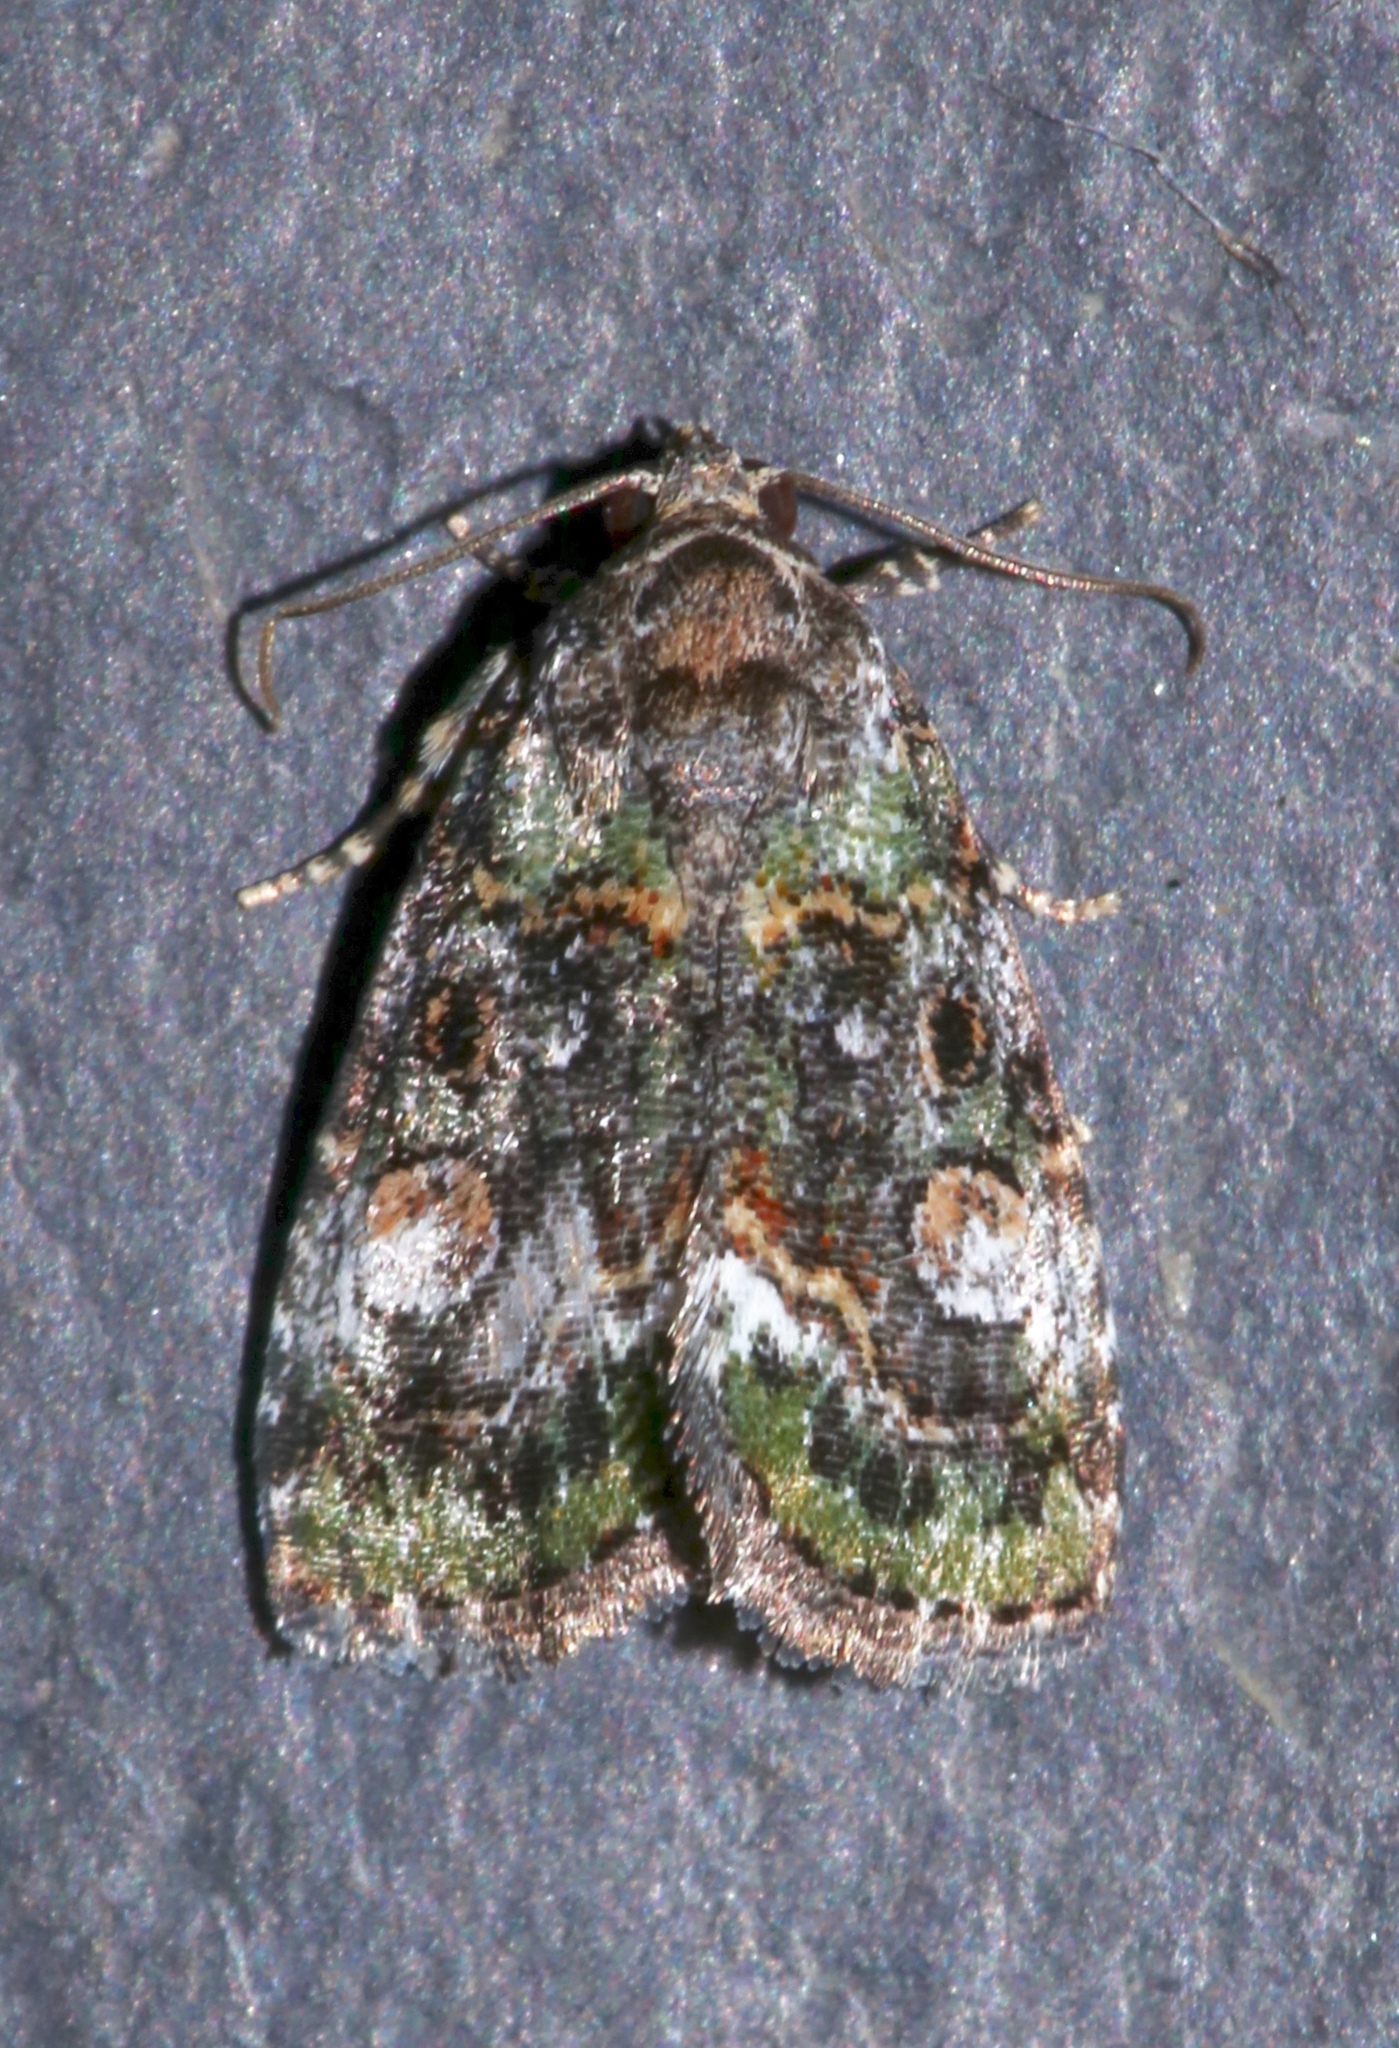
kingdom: Animalia
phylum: Arthropoda
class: Insecta
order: Lepidoptera
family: Noctuidae
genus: Lithacodia
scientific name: Lithacodia musta
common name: Small mossy glyph
